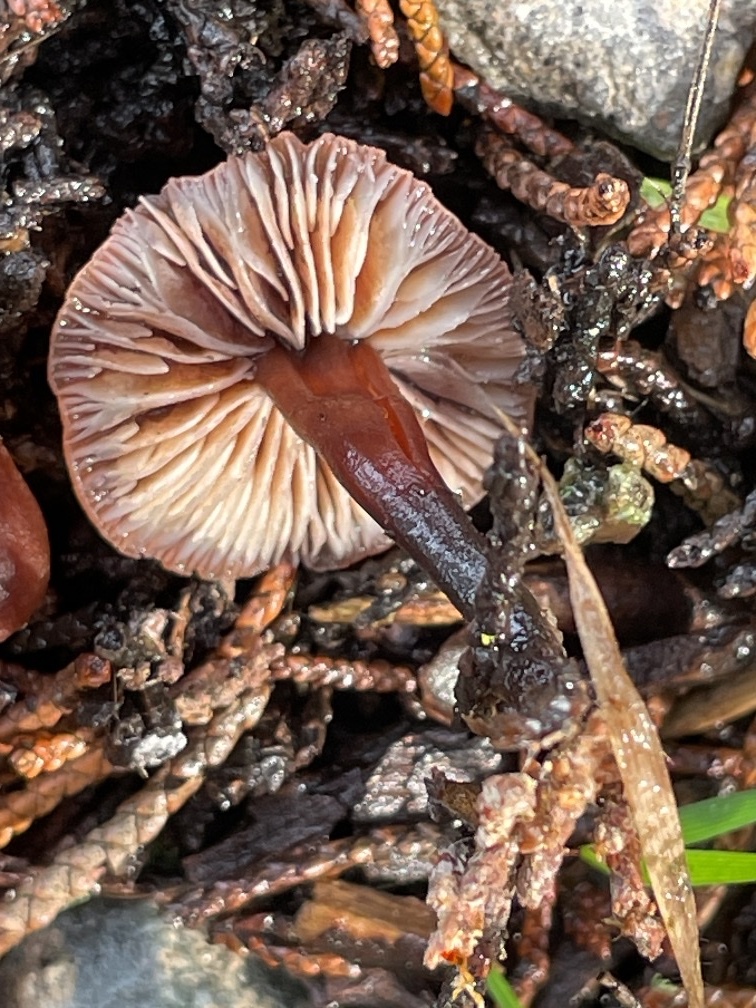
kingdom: Fungi
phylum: Basidiomycota
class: Agaricomycetes
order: Agaricales
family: Omphalotaceae
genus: Gymnopus
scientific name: Gymnopus brassicolens
